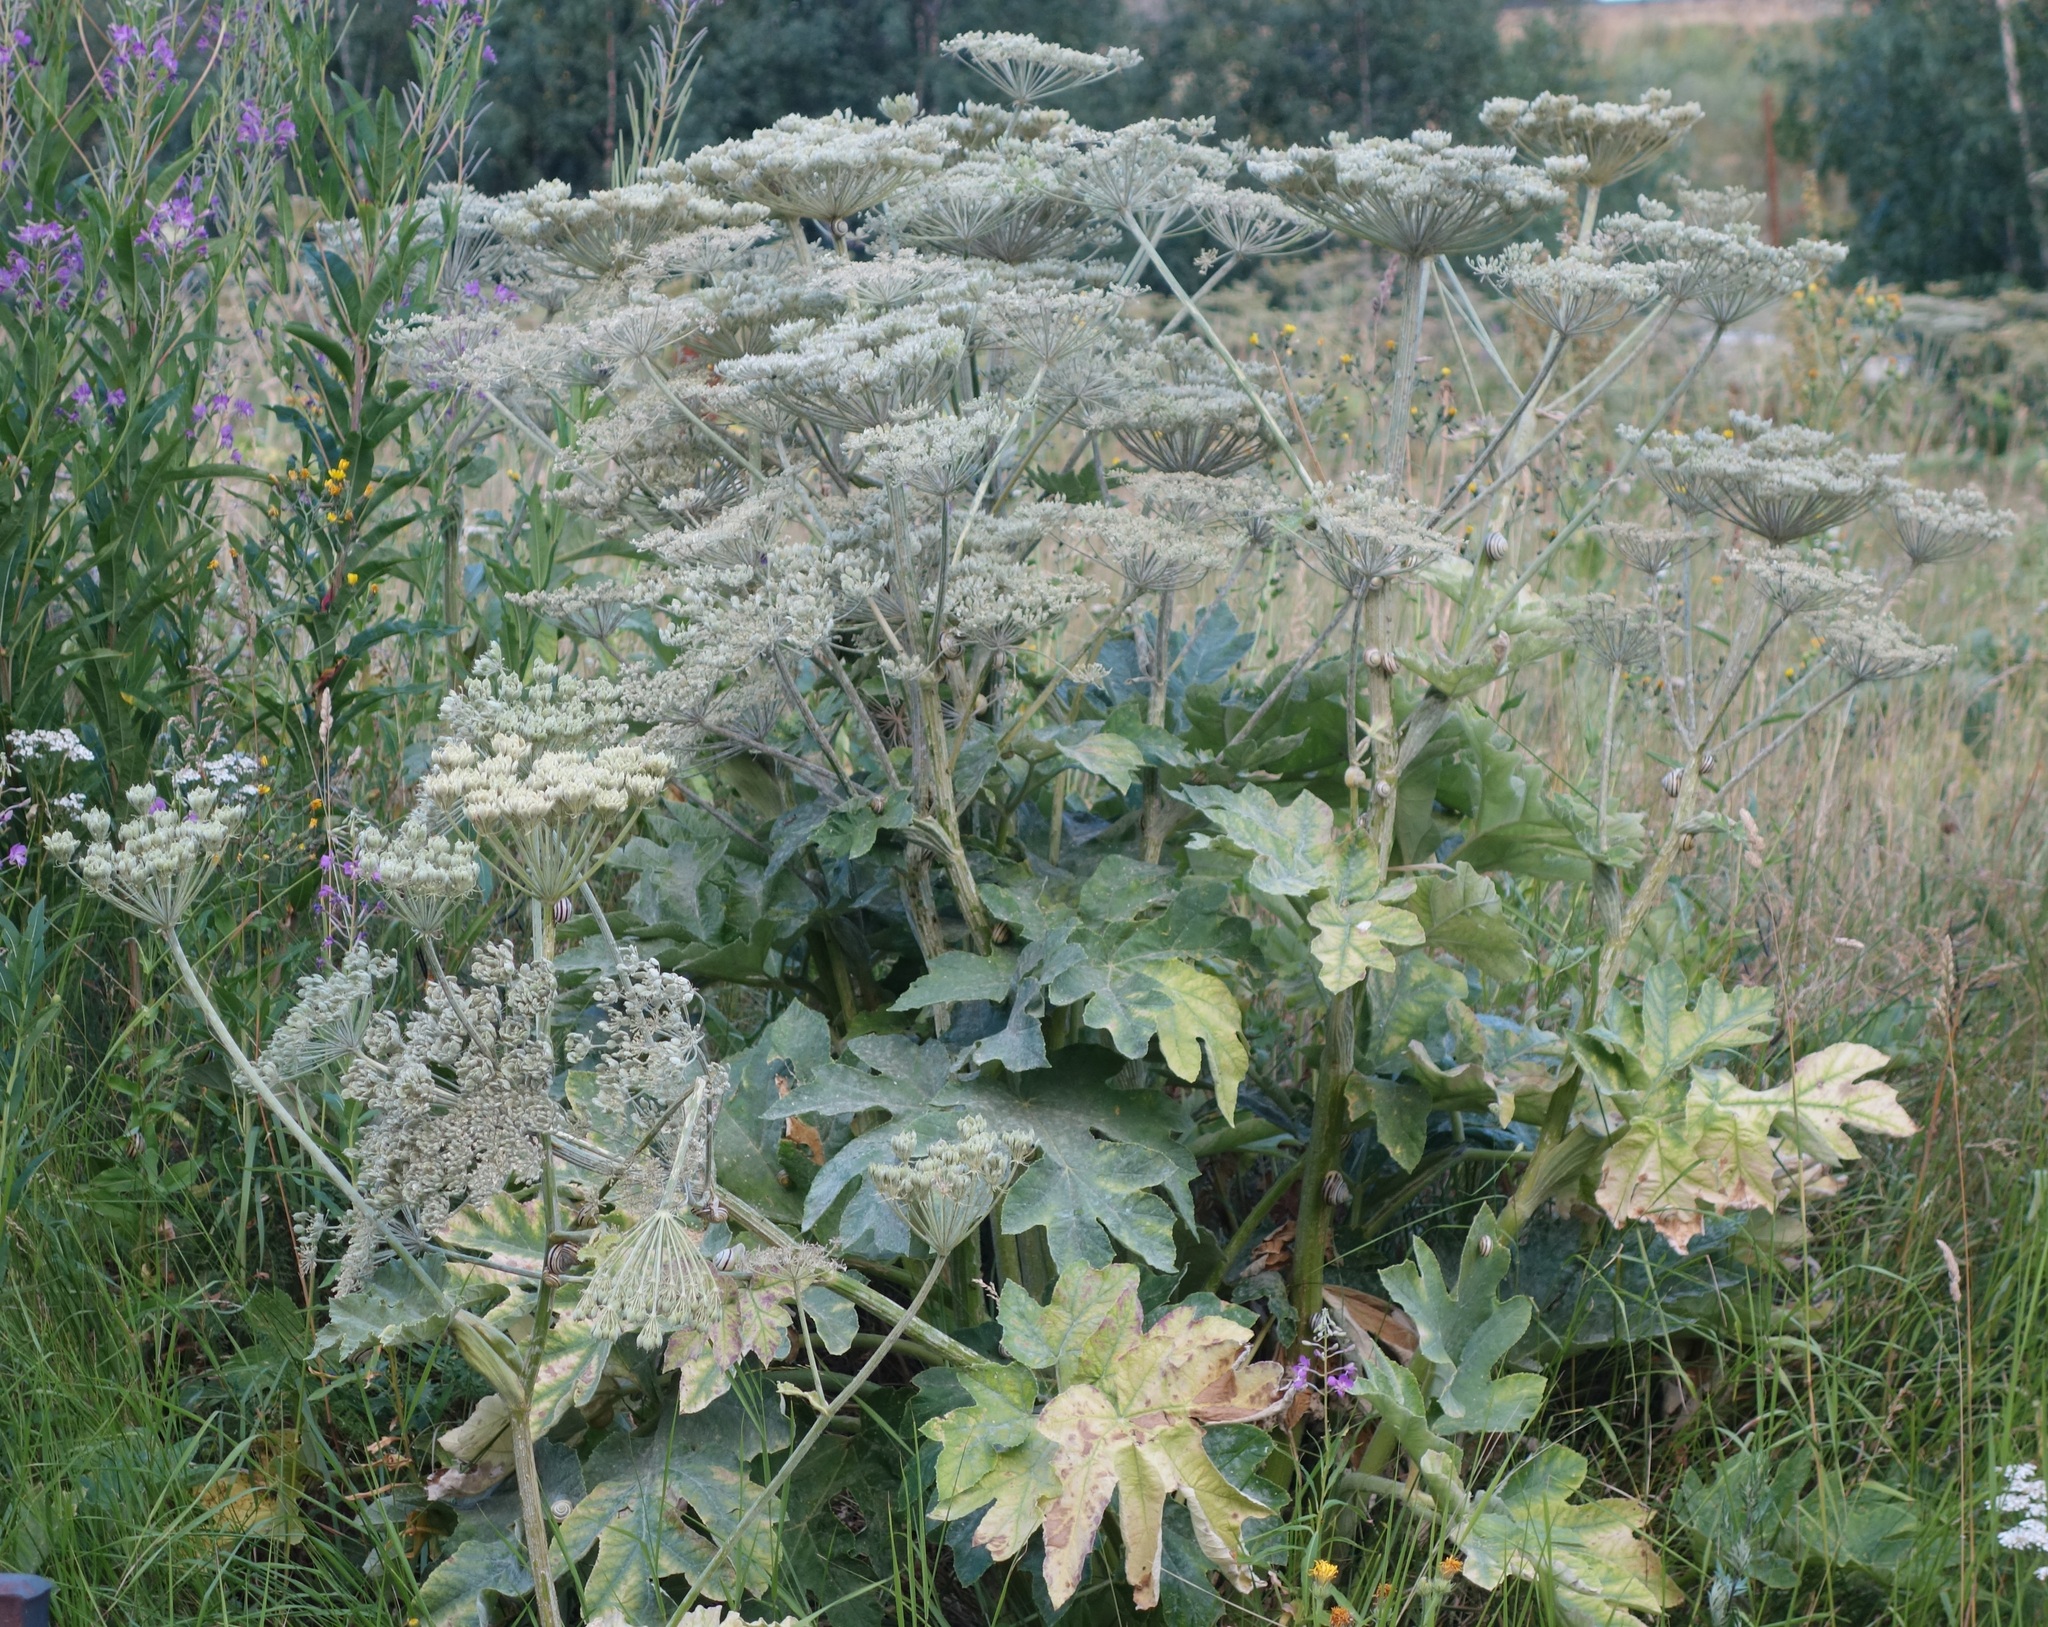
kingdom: Plantae
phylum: Tracheophyta
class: Magnoliopsida
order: Apiales
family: Apiaceae
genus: Heracleum
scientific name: Heracleum sphondylium
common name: Hogweed
